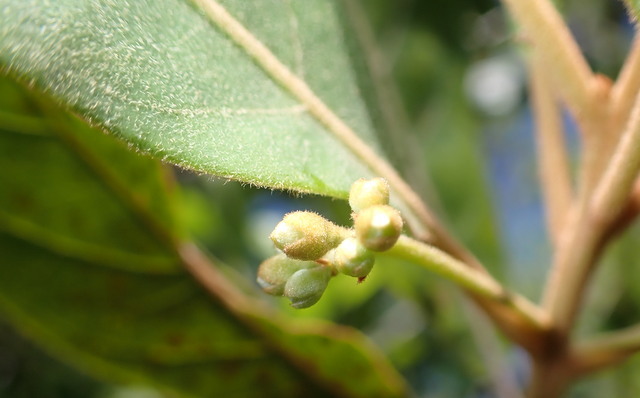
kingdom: Plantae
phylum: Tracheophyta
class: Magnoliopsida
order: Laurales
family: Lauraceae
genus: Persea
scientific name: Persea palustris
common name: Swampbay
